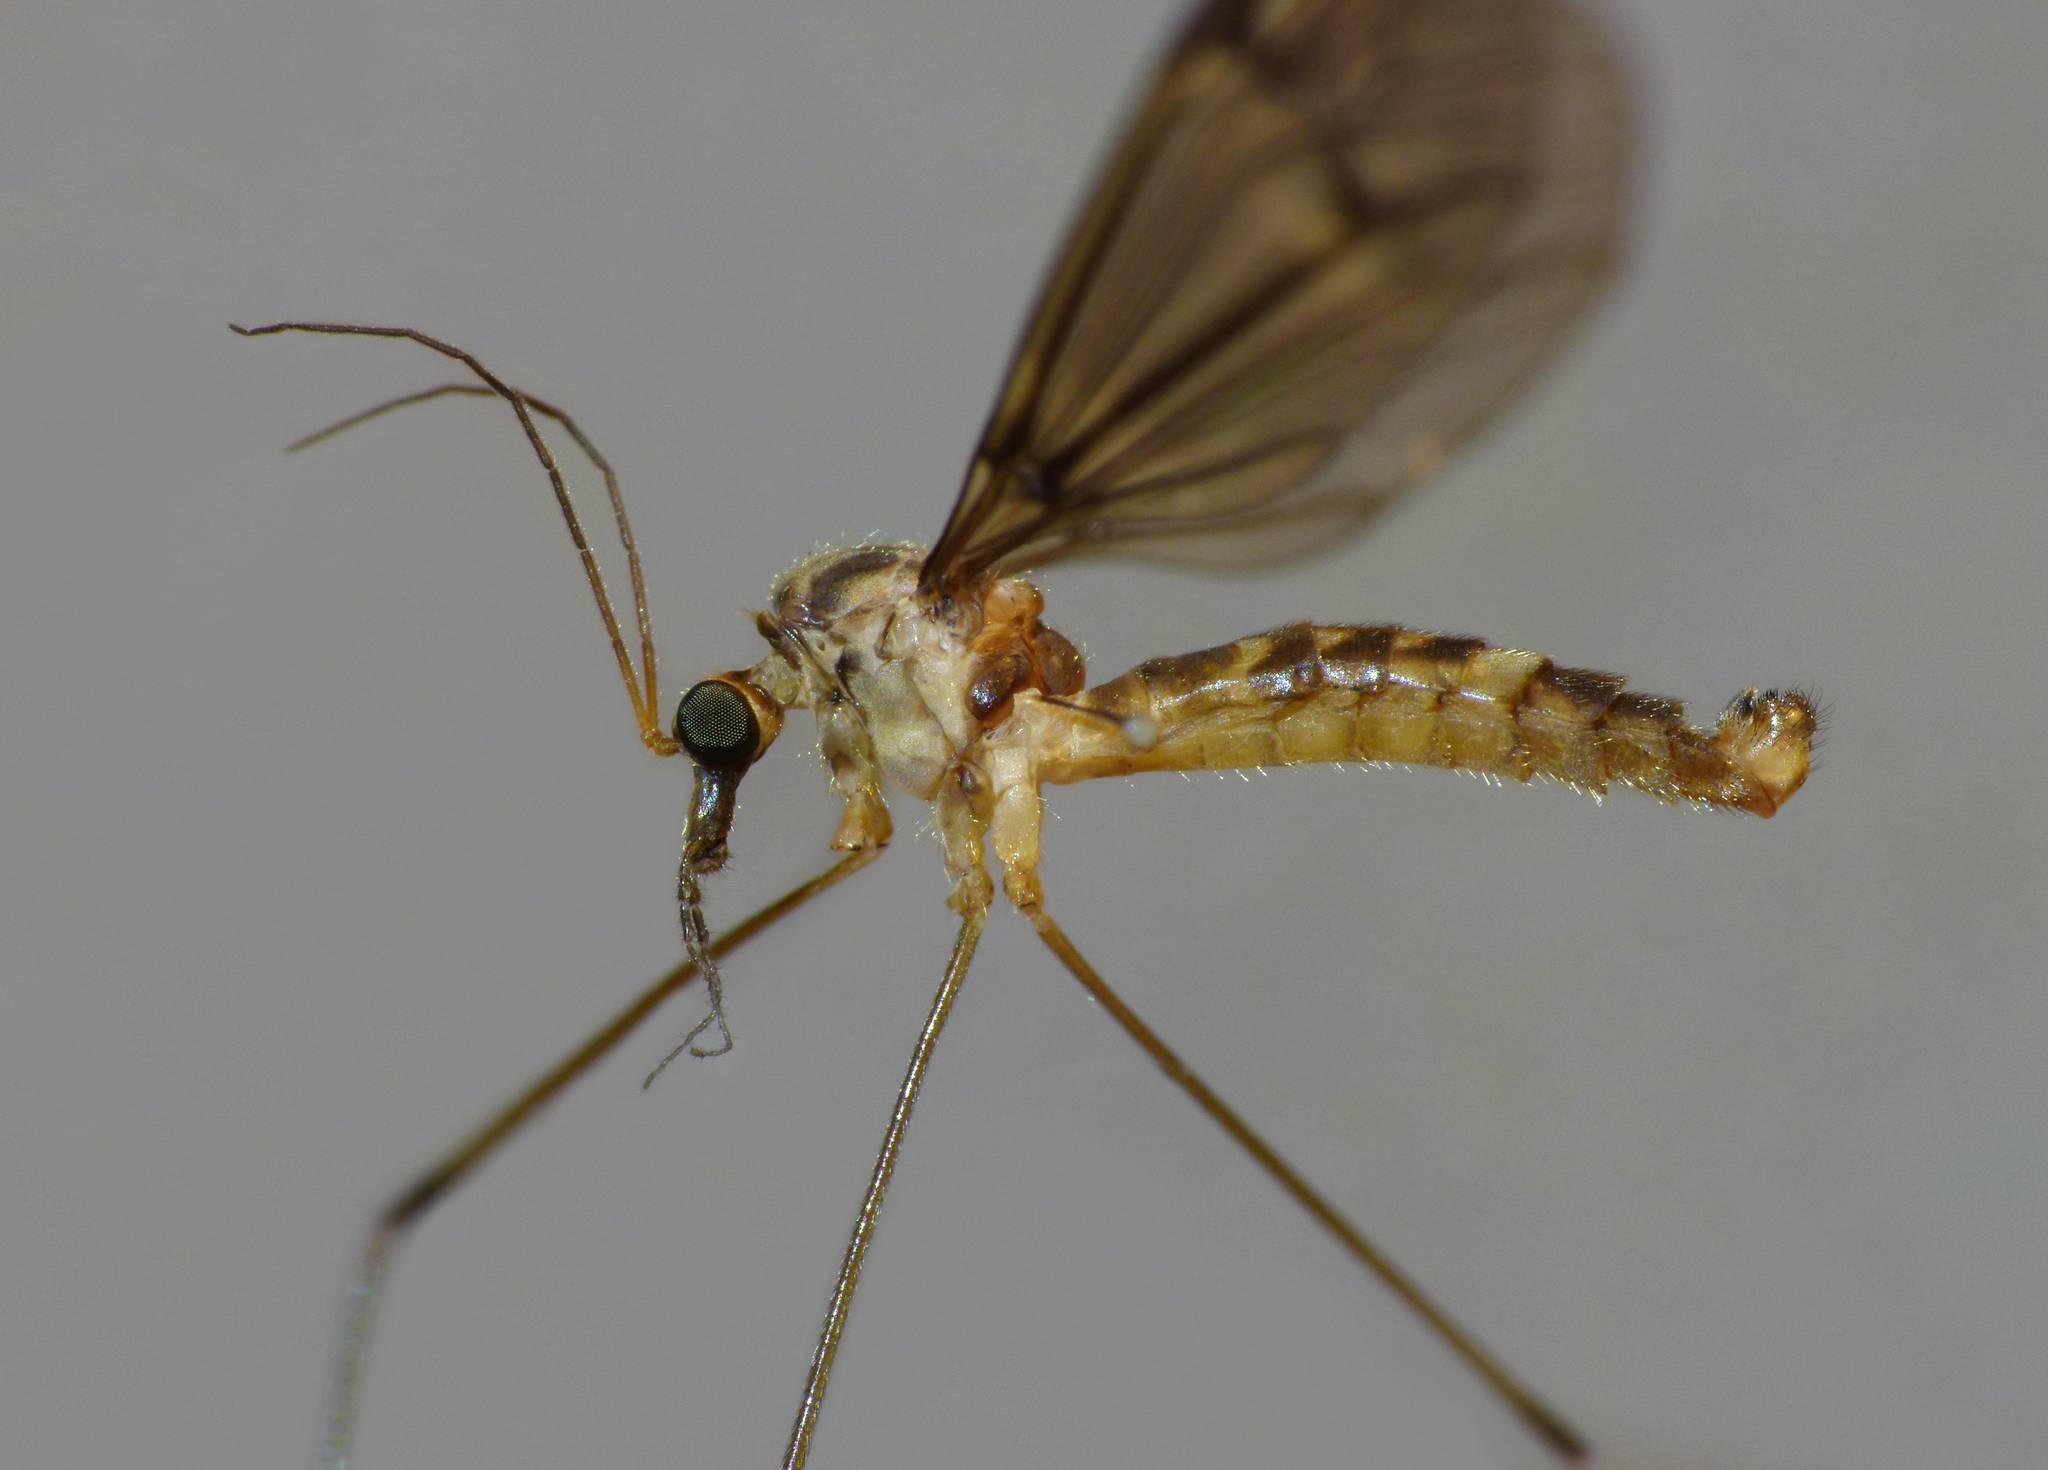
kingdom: Animalia
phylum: Arthropoda
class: Insecta
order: Diptera
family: Tipulidae
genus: Leptotarsus
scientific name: Leptotarsus cubitalis
